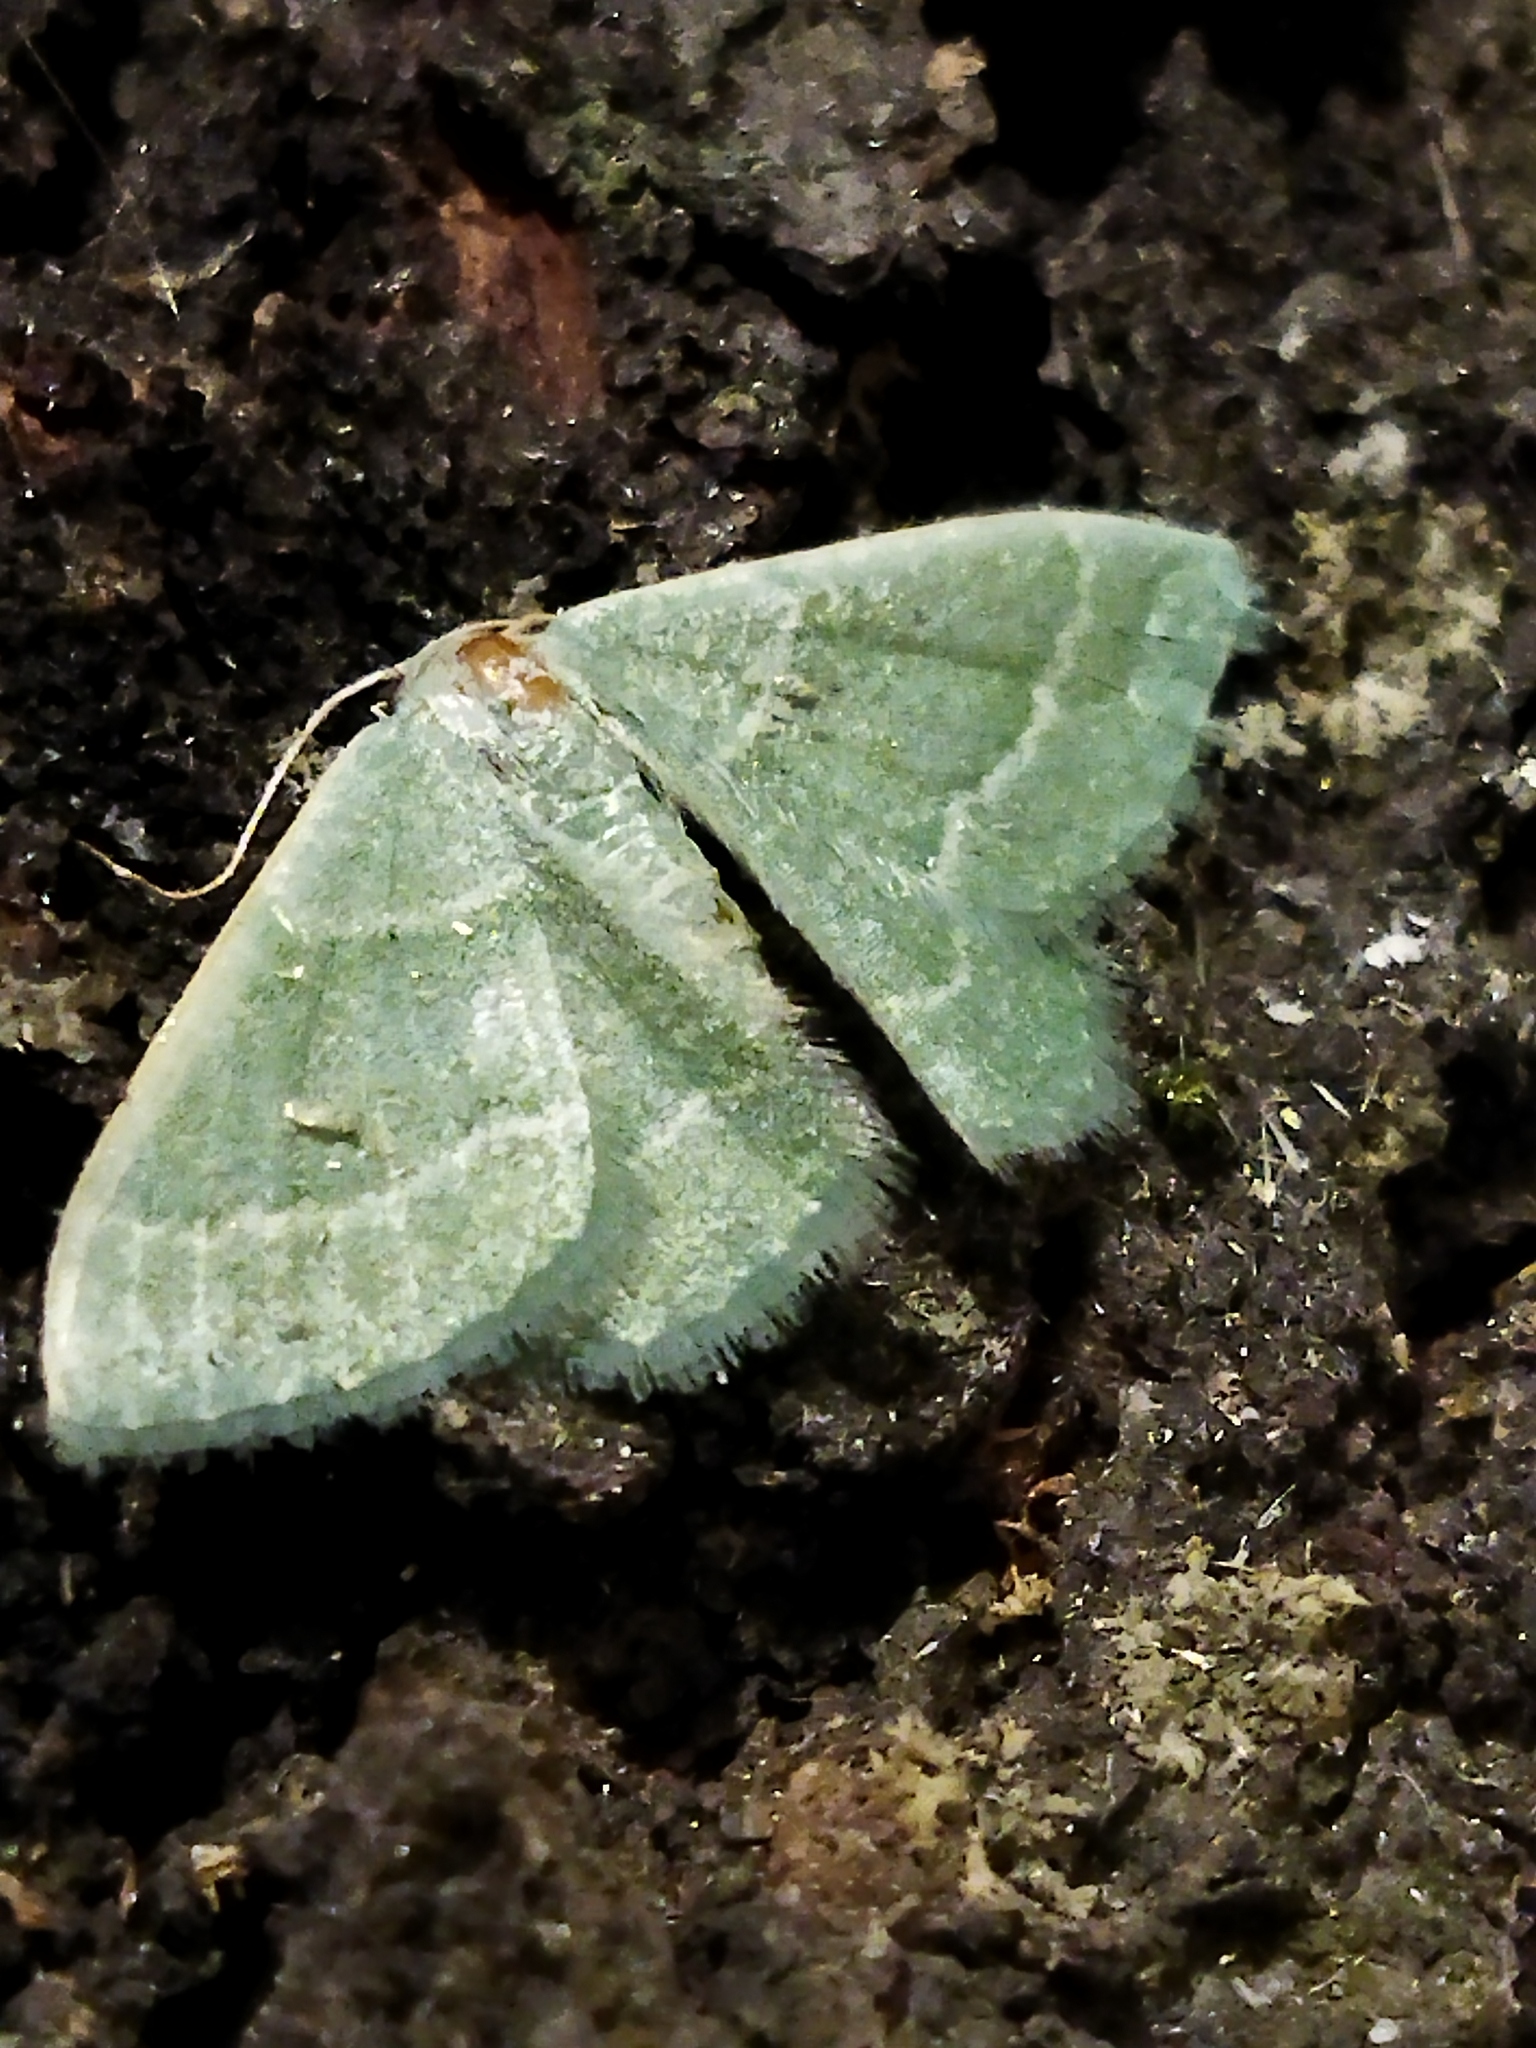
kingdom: Animalia
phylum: Arthropoda
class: Insecta
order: Lepidoptera
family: Geometridae
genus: Chlorissa
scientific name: Chlorissa etruscaria
